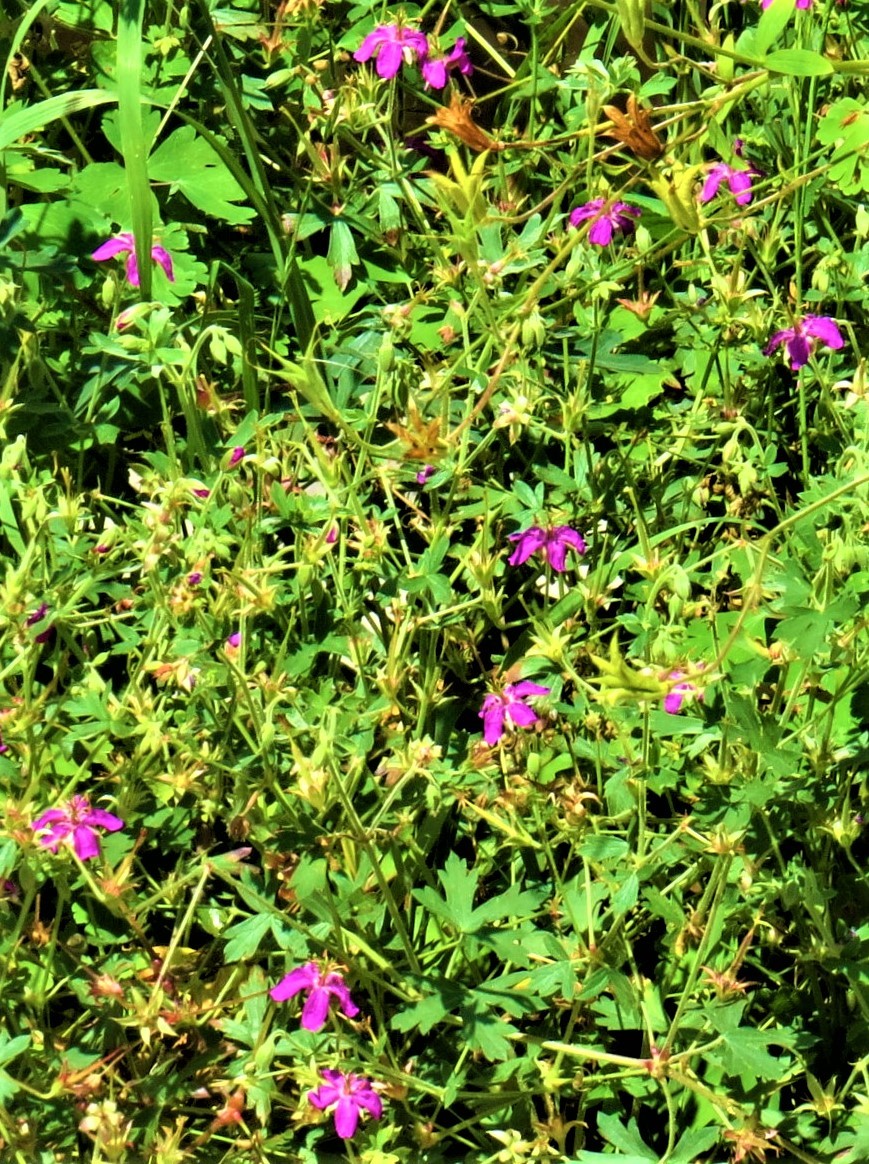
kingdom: Plantae
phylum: Tracheophyta
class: Magnoliopsida
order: Geraniales
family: Geraniaceae
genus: Geranium
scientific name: Geranium caespitosum
